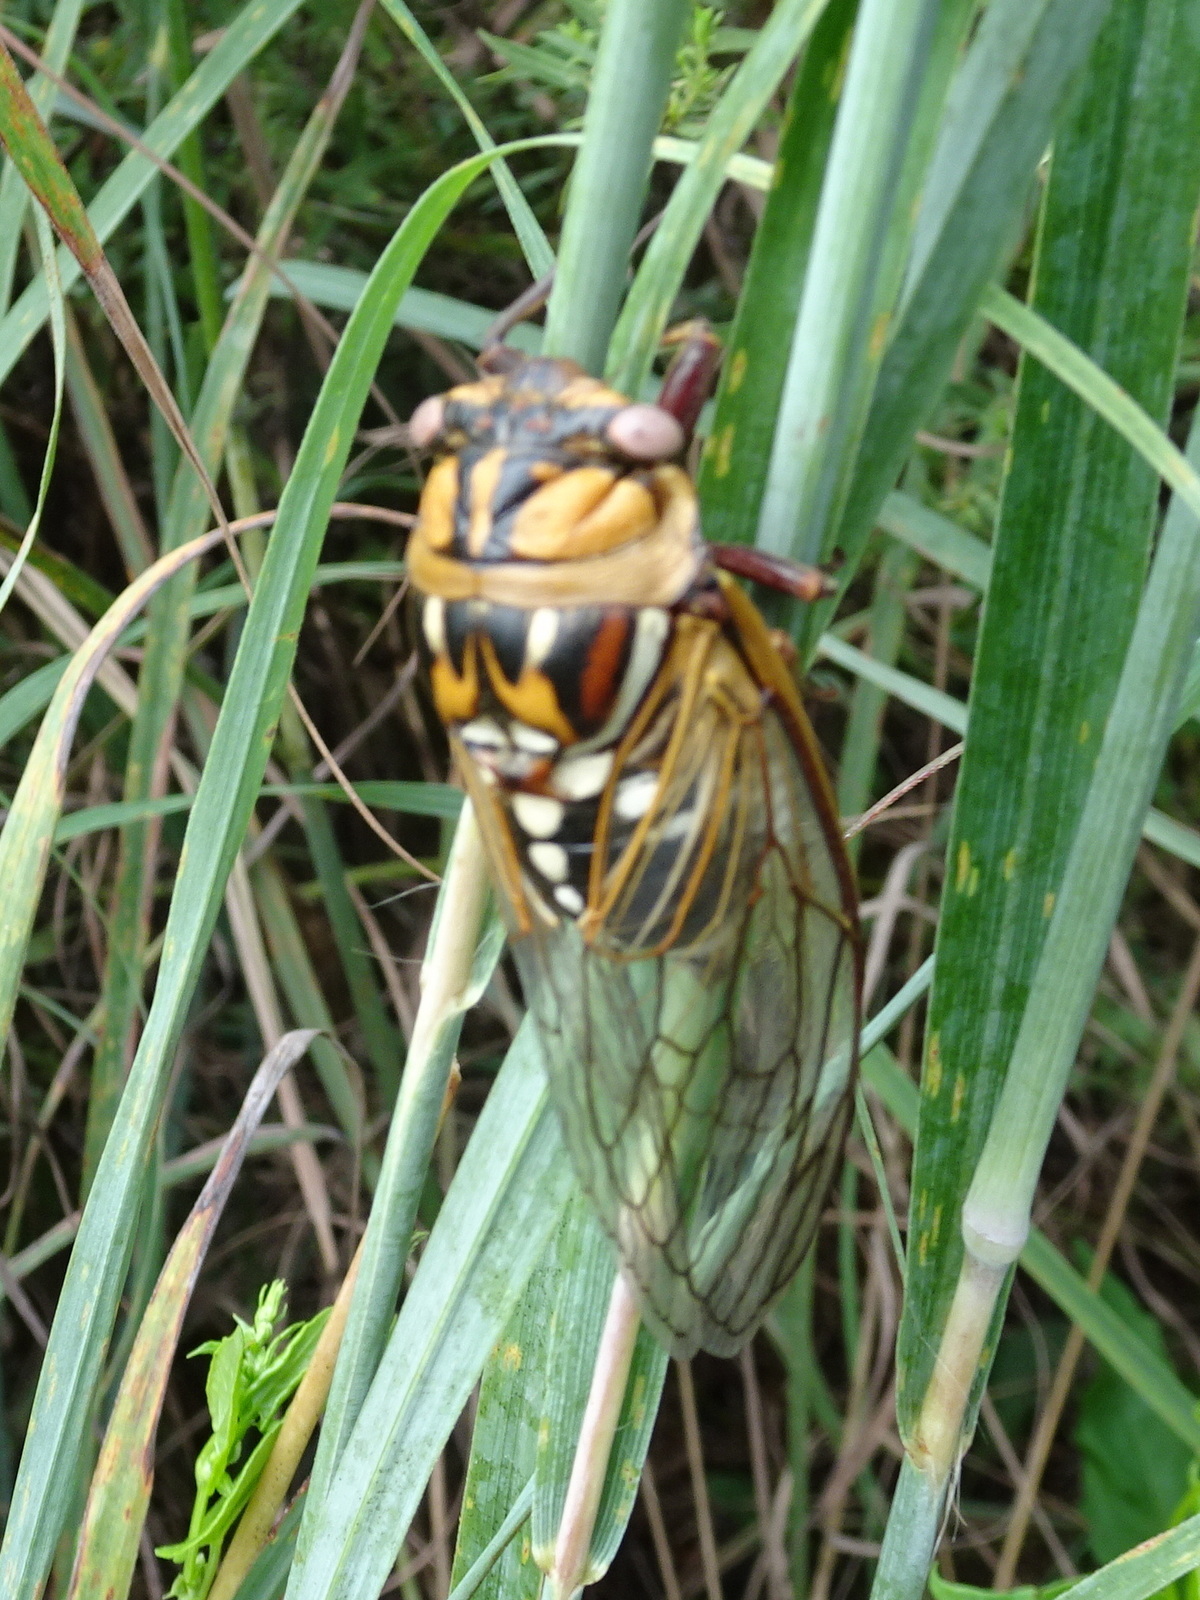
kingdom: Animalia
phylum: Arthropoda
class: Insecta
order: Hemiptera
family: Cicadidae
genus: Megatibicen
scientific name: Megatibicen dorsatus
